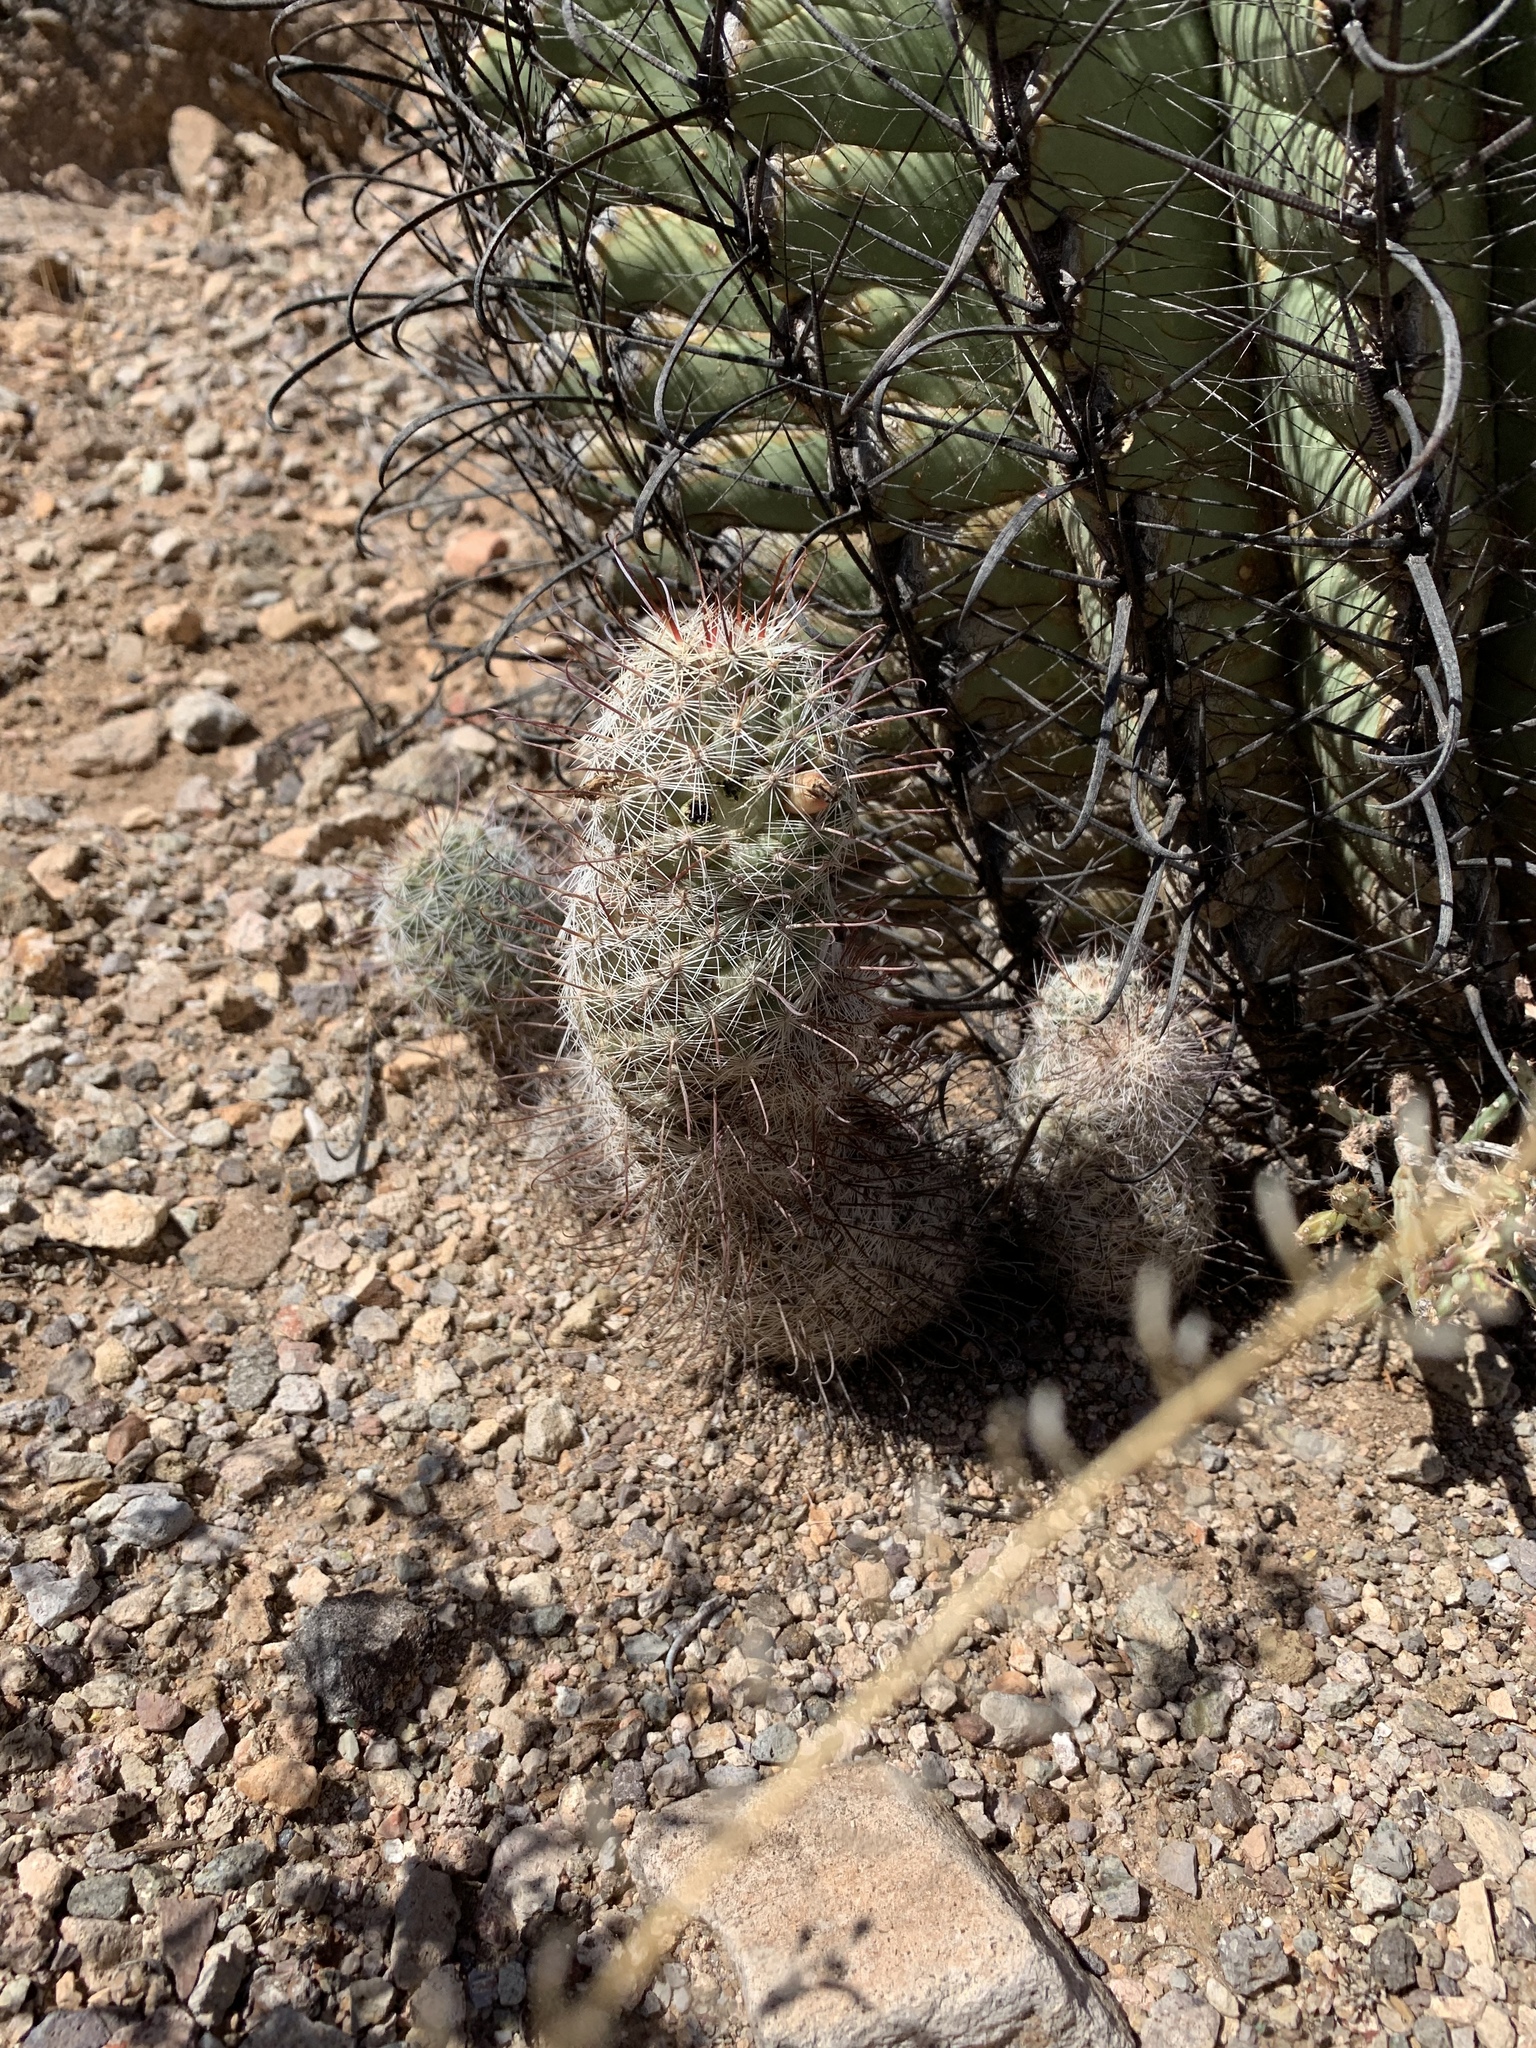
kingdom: Plantae
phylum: Tracheophyta
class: Magnoliopsida
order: Caryophyllales
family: Cactaceae
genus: Cochemiea
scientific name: Cochemiea grahamii
